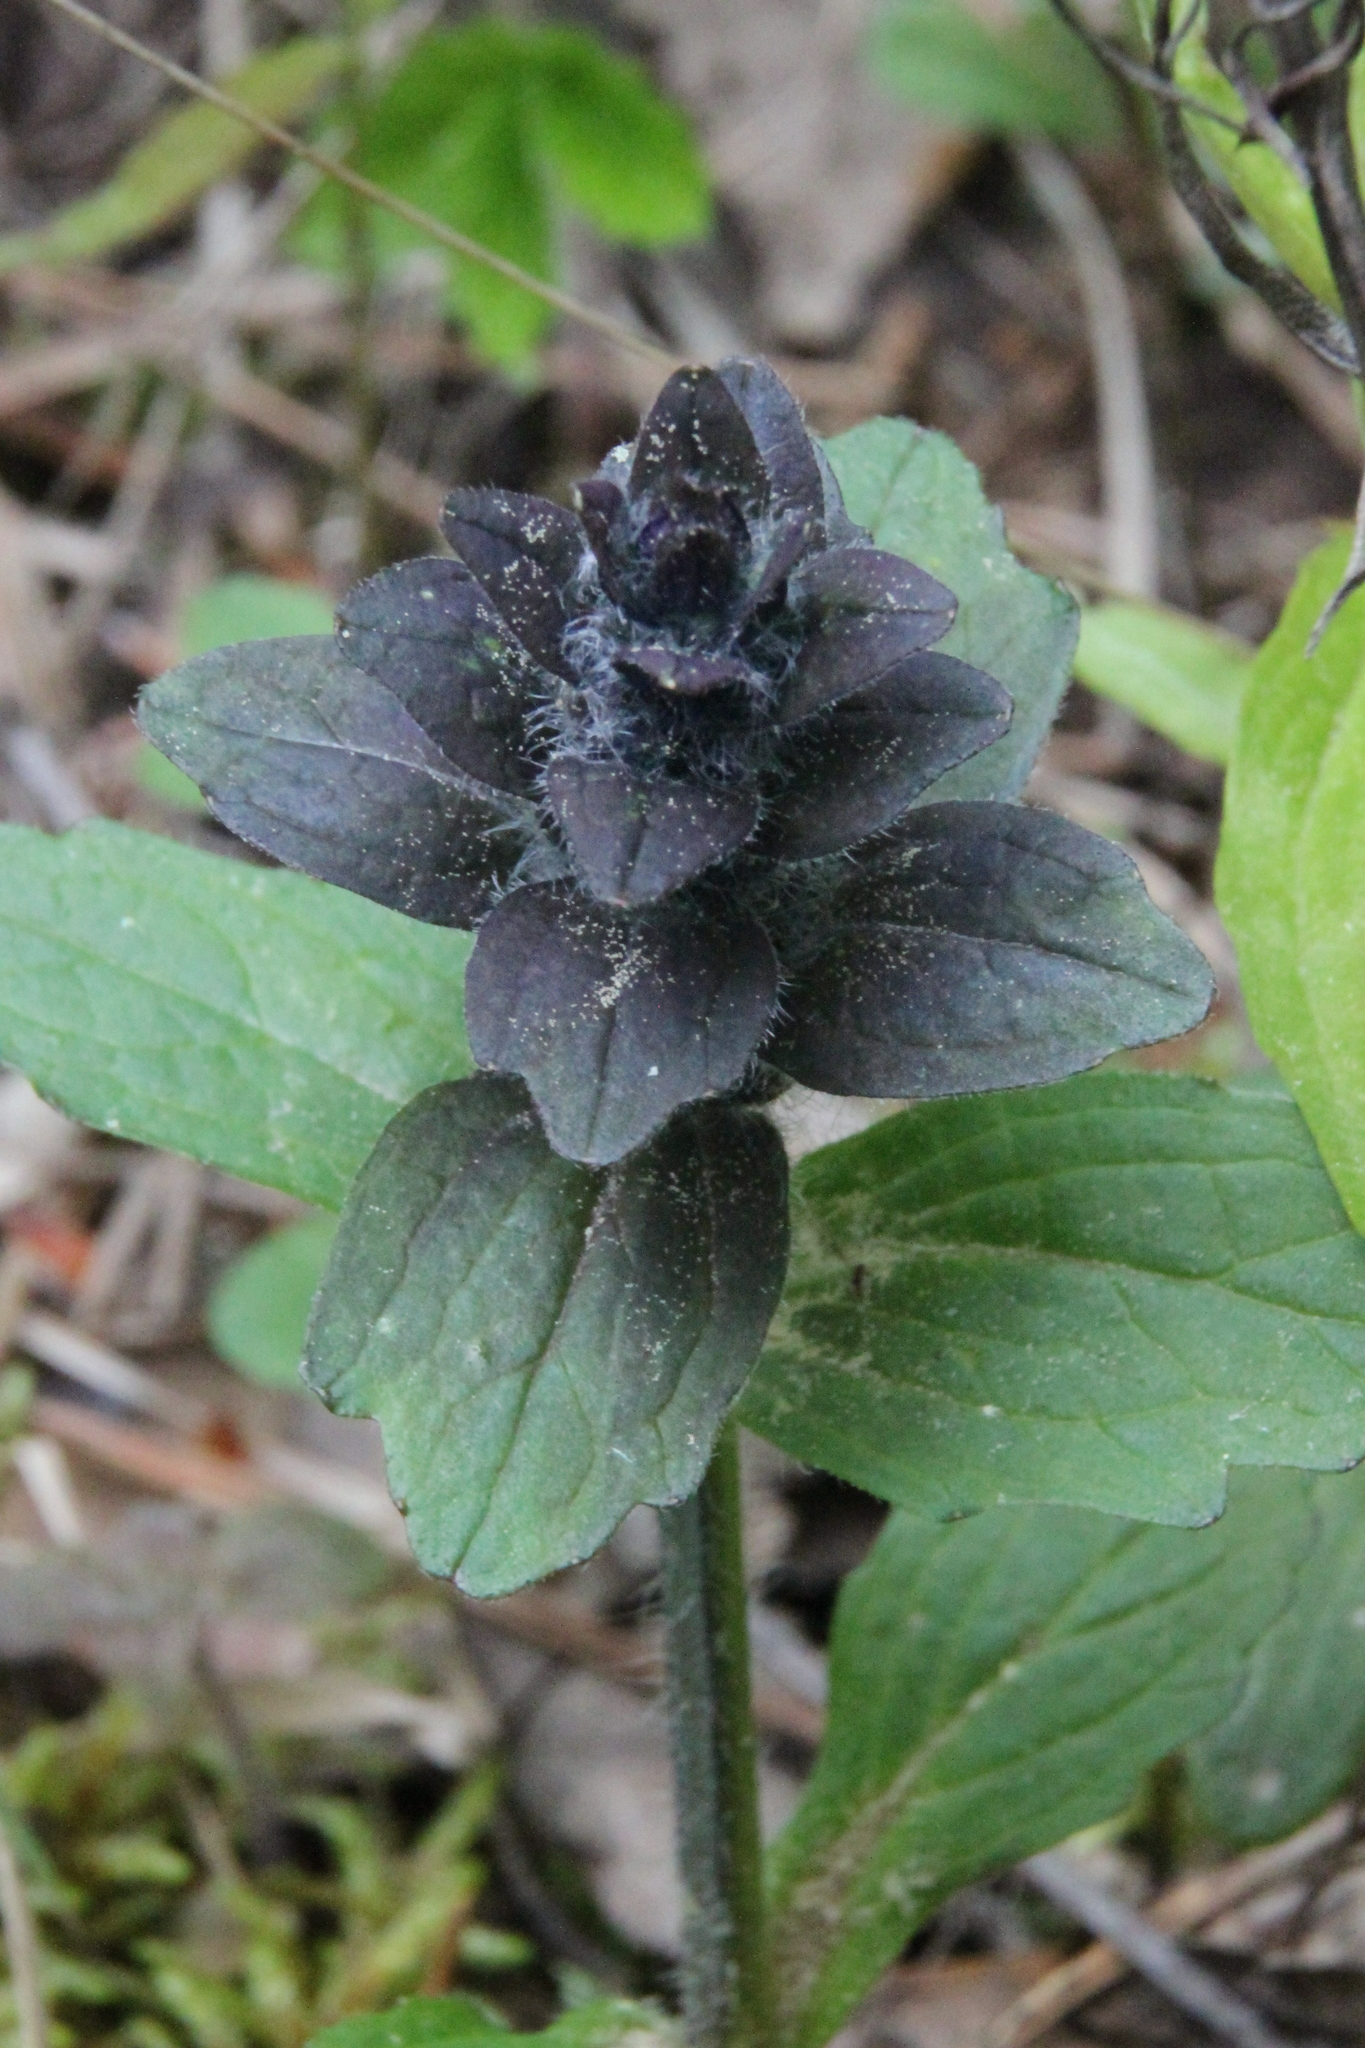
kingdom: Plantae
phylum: Tracheophyta
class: Magnoliopsida
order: Lamiales
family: Lamiaceae
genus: Ajuga
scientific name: Ajuga reptans
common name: Bugle
